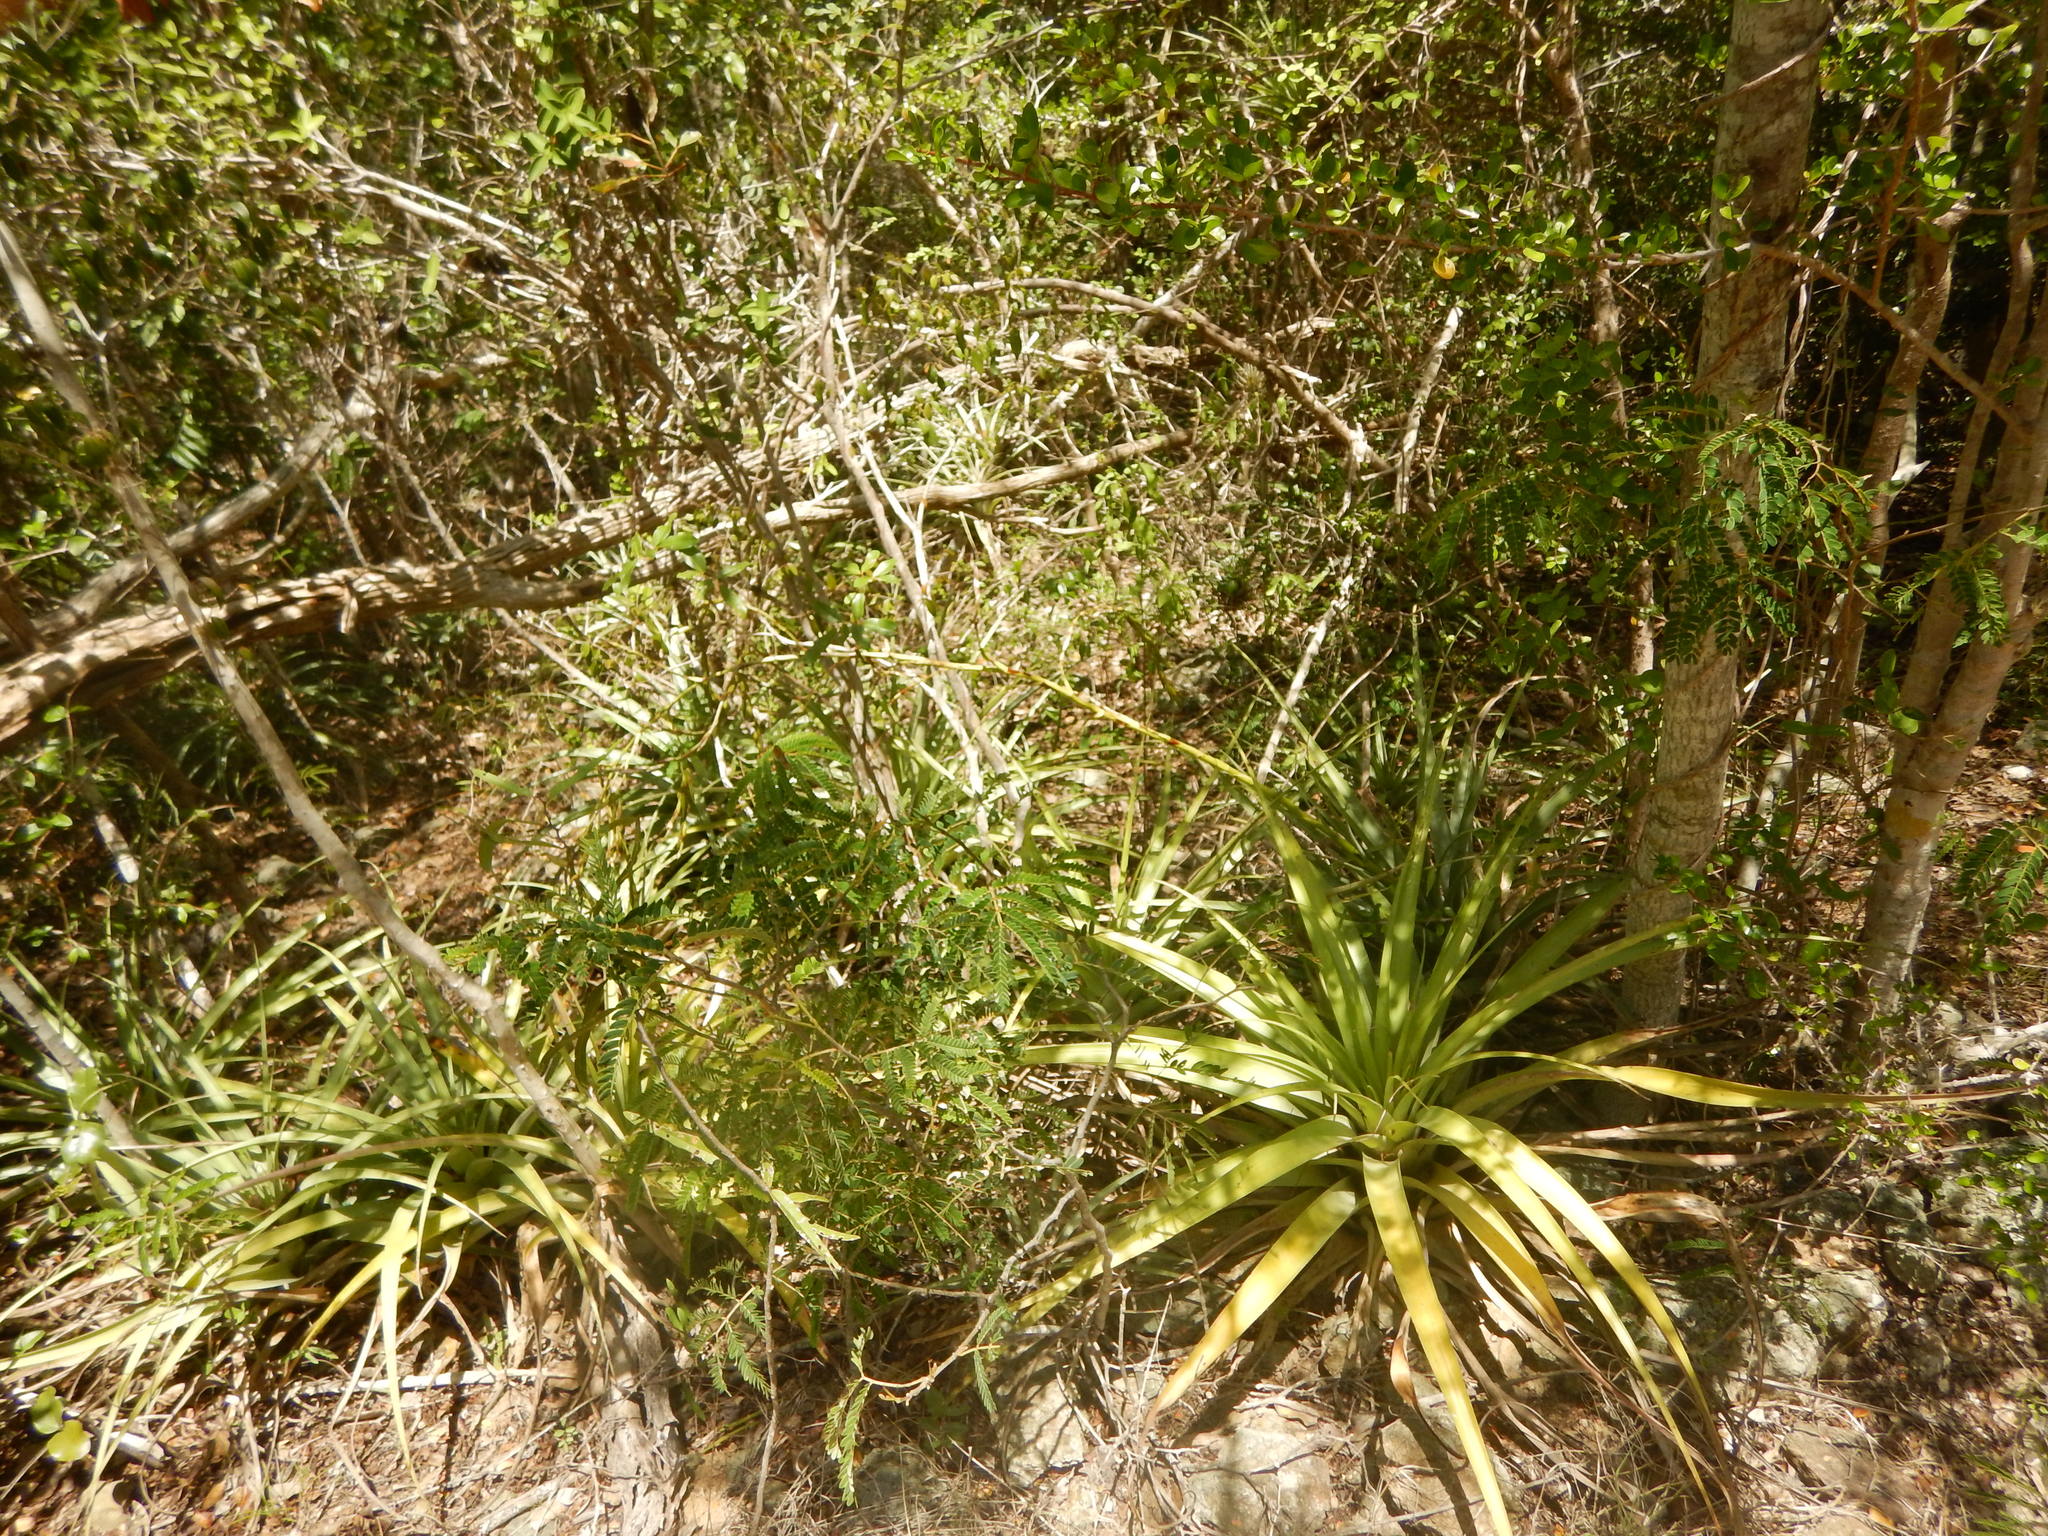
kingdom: Plantae
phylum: Tracheophyta
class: Liliopsida
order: Poales
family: Bromeliaceae
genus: Tillandsia
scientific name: Tillandsia utriculata
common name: Wild pine
